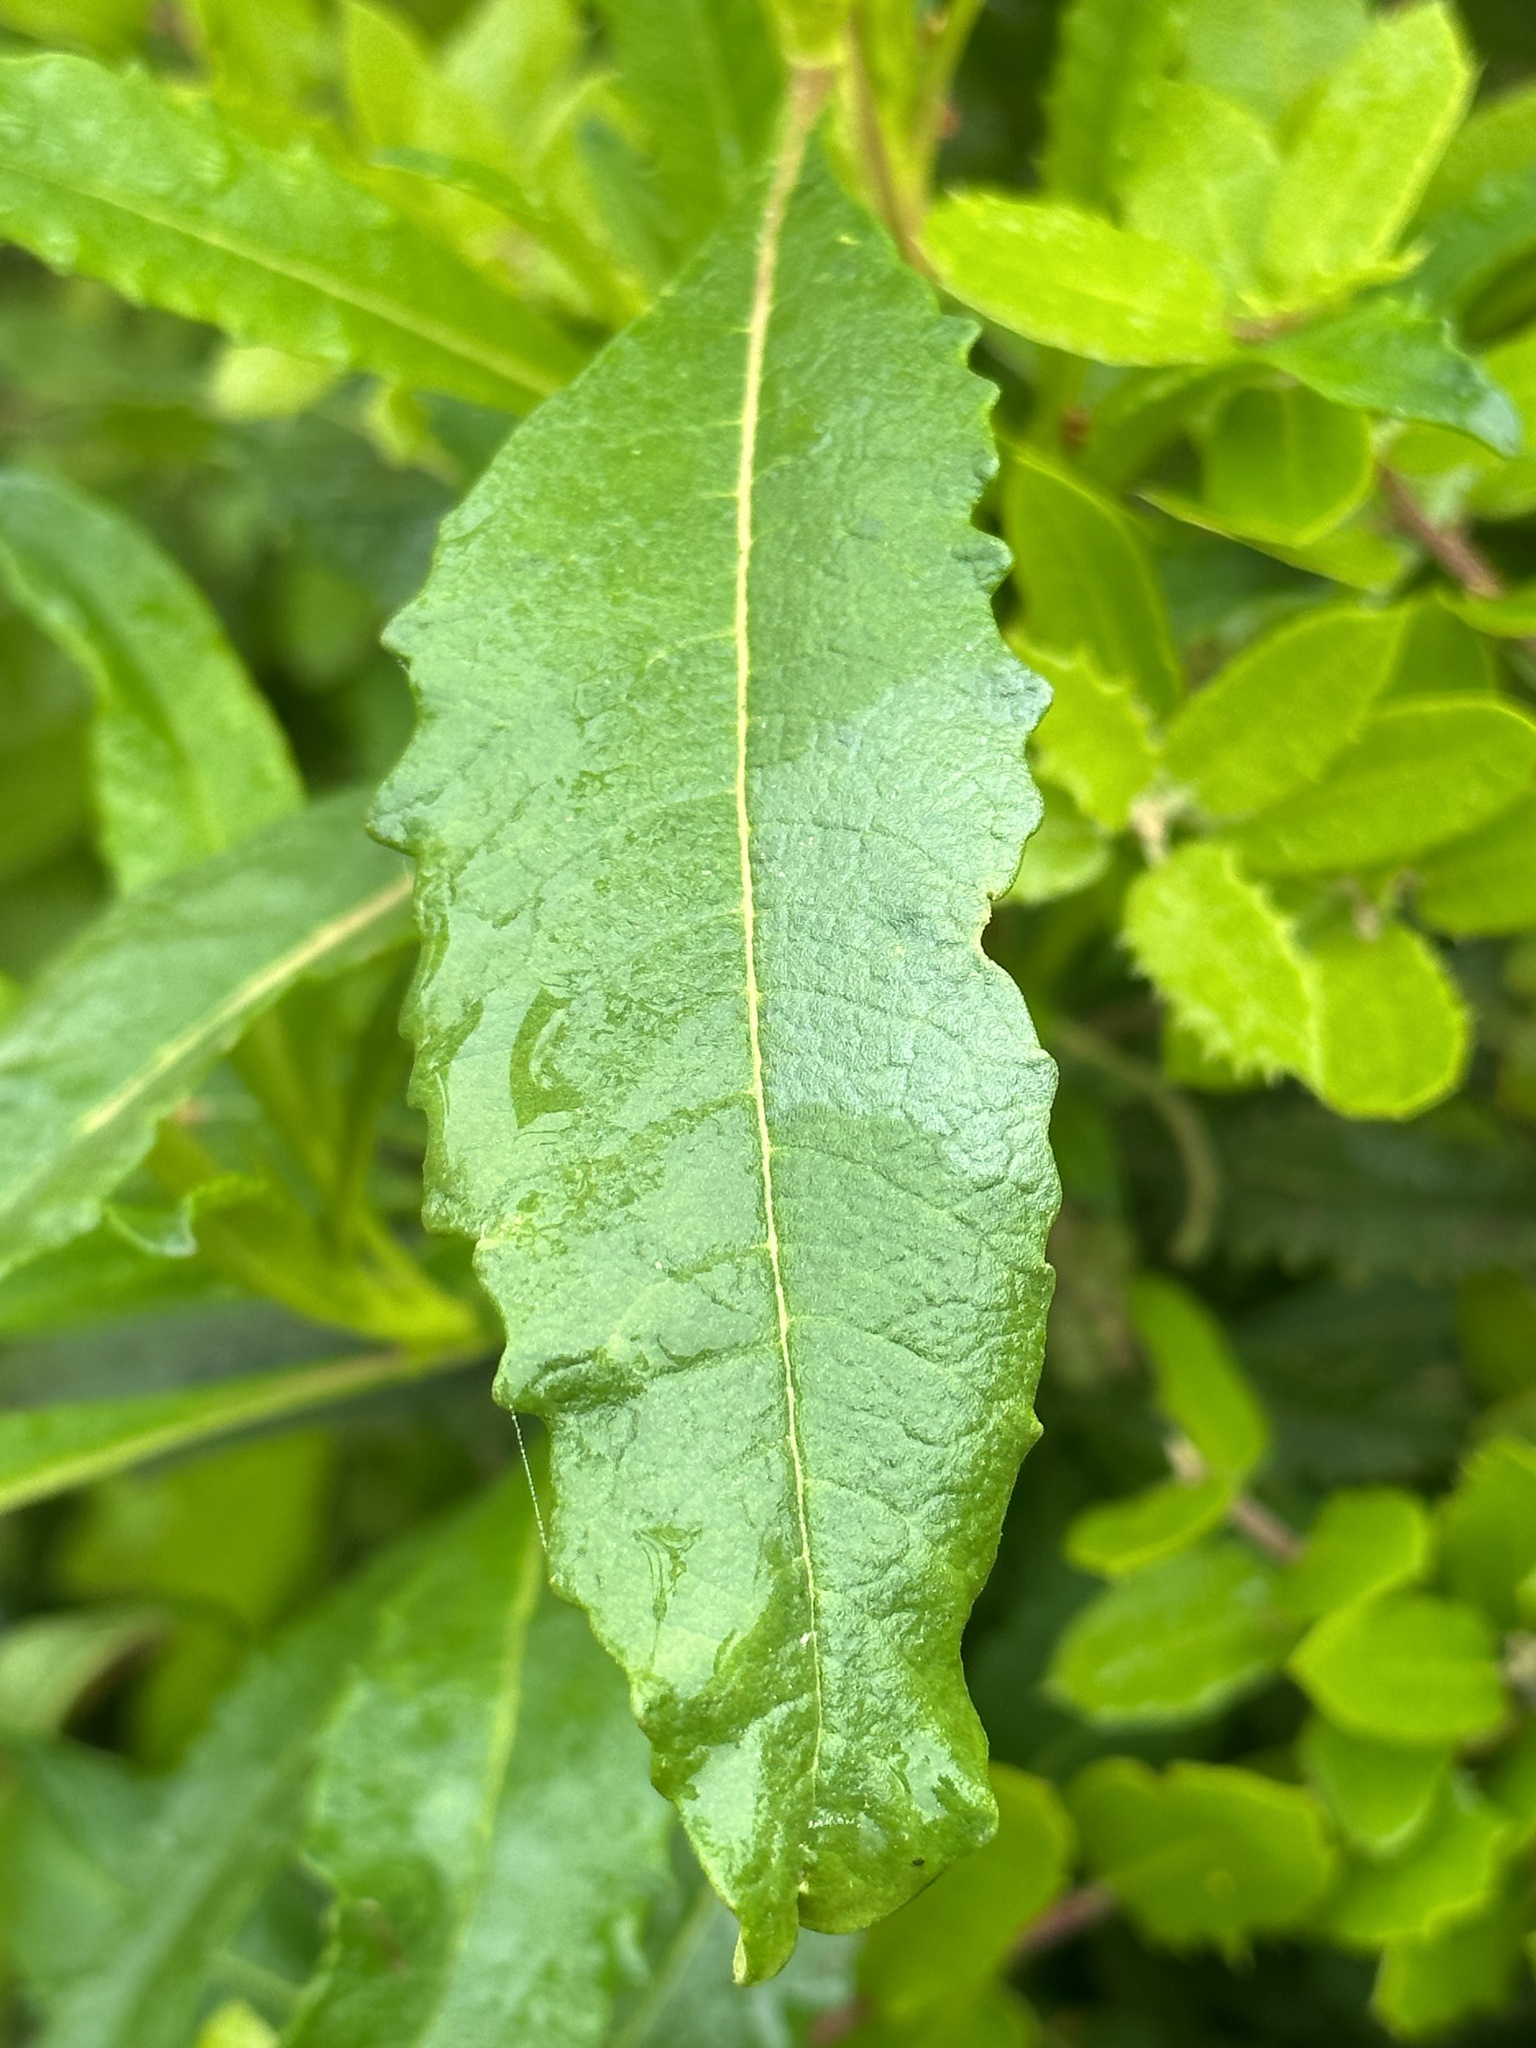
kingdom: Plantae
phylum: Tracheophyta
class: Magnoliopsida
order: Boraginales
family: Namaceae
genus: Eriodictyon
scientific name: Eriodictyon californicum
